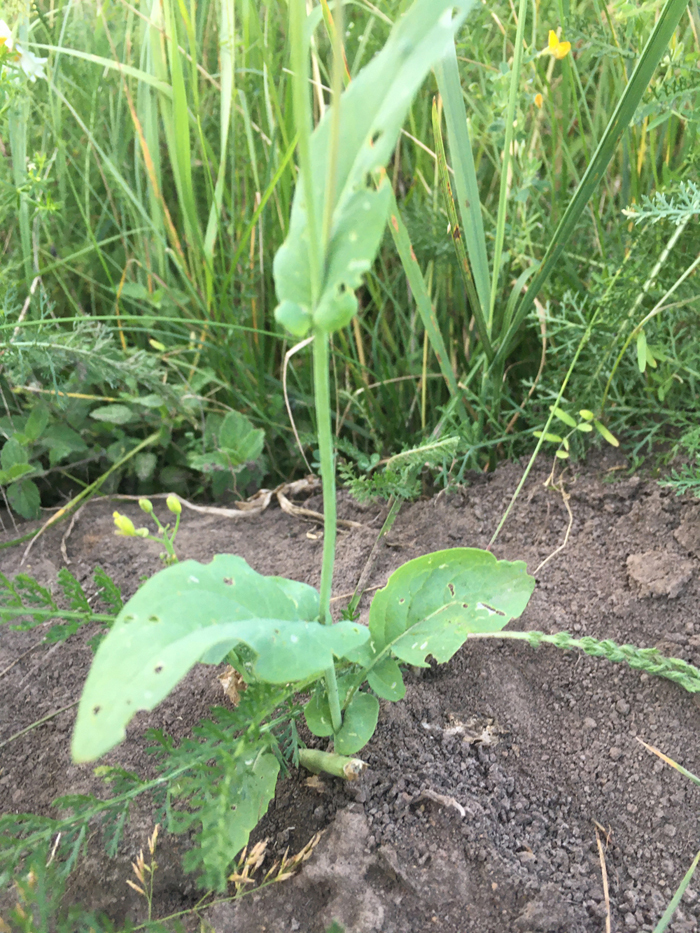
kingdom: Plantae
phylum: Tracheophyta
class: Magnoliopsida
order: Brassicales
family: Brassicaceae
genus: Brassica
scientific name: Brassica rapa
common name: Field mustard
